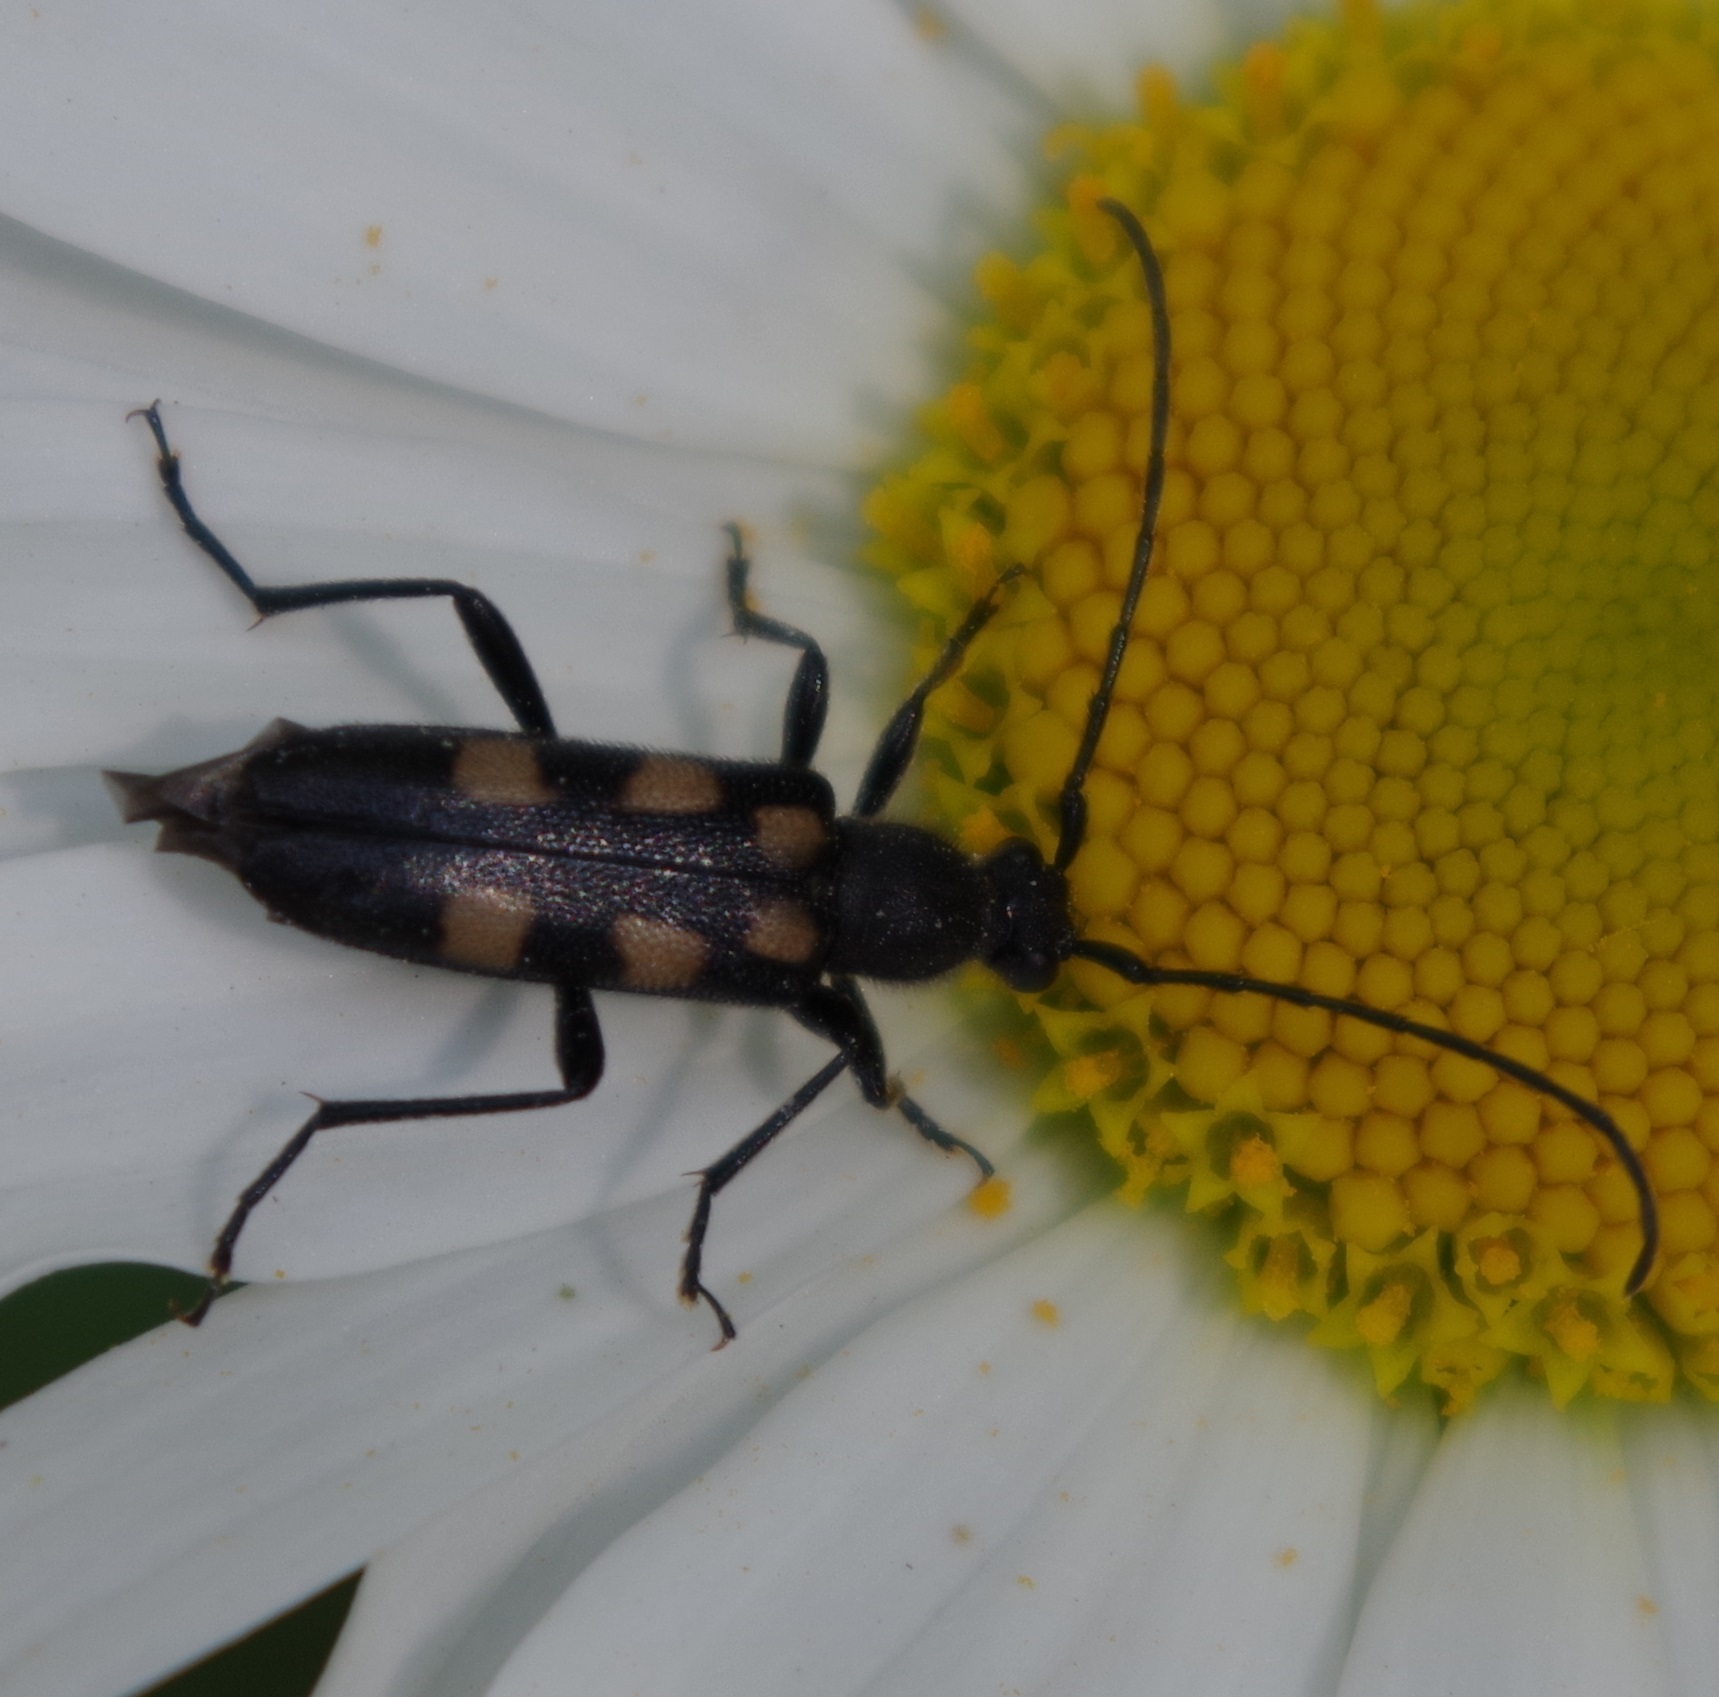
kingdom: Animalia
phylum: Arthropoda
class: Insecta
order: Coleoptera
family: Cerambycidae
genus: Anoplodera
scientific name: Anoplodera sexguttata
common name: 6 spotted longhorn
